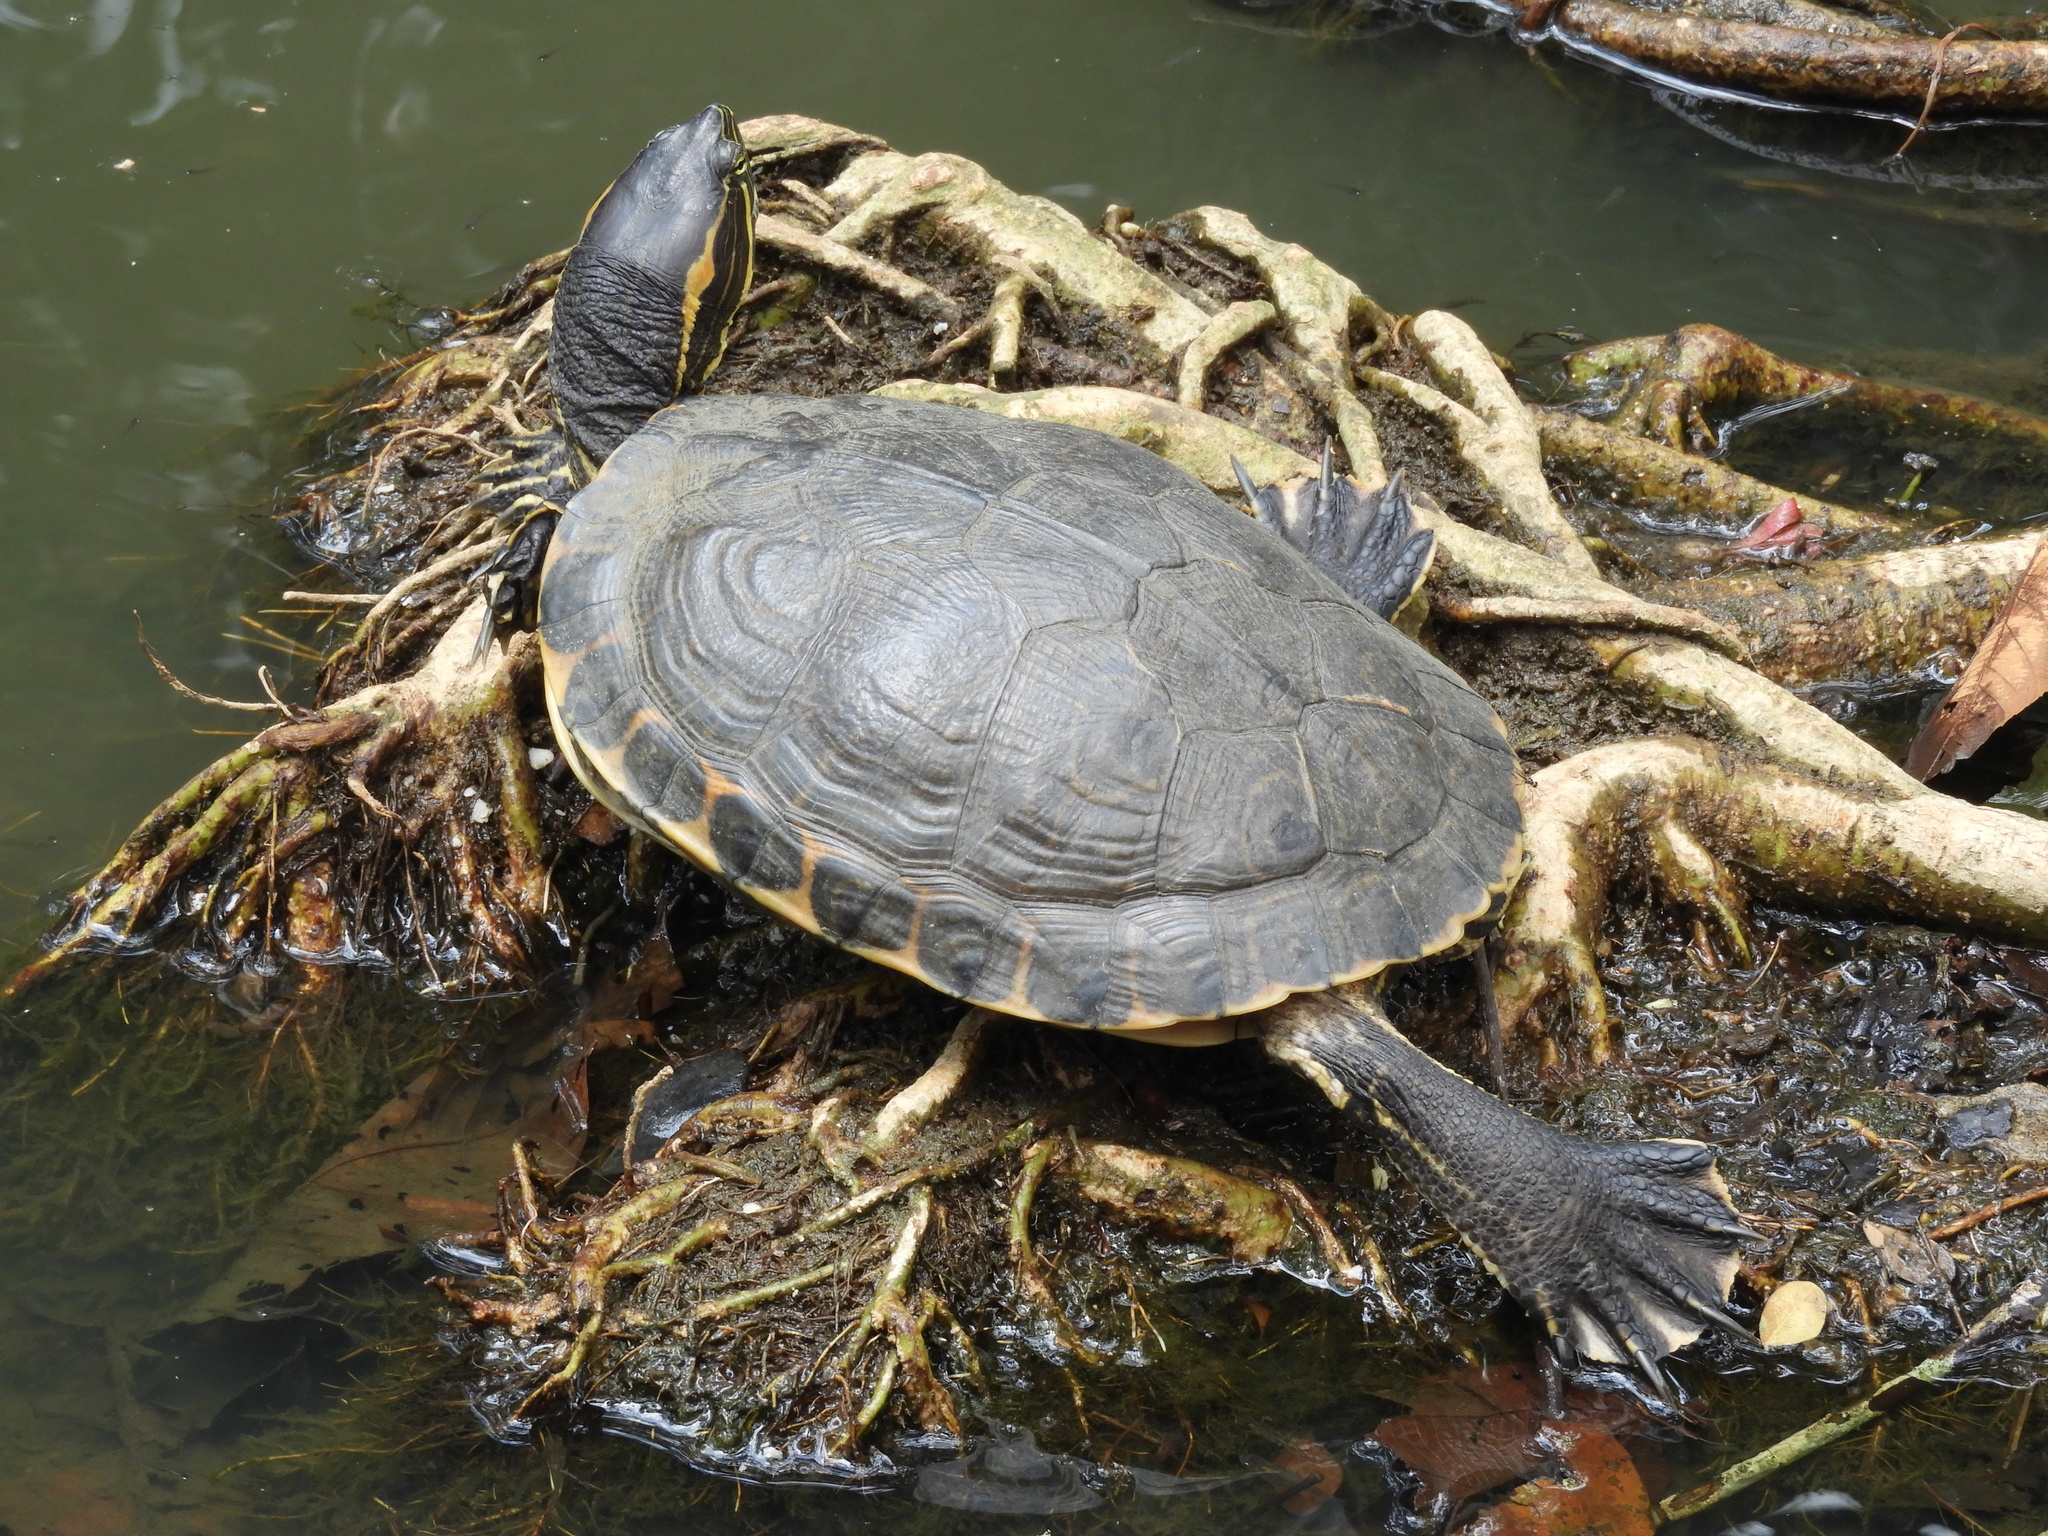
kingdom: Animalia
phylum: Chordata
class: Testudines
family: Emydidae
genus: Trachemys
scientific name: Trachemys venusta
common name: Mesoamerican slider
